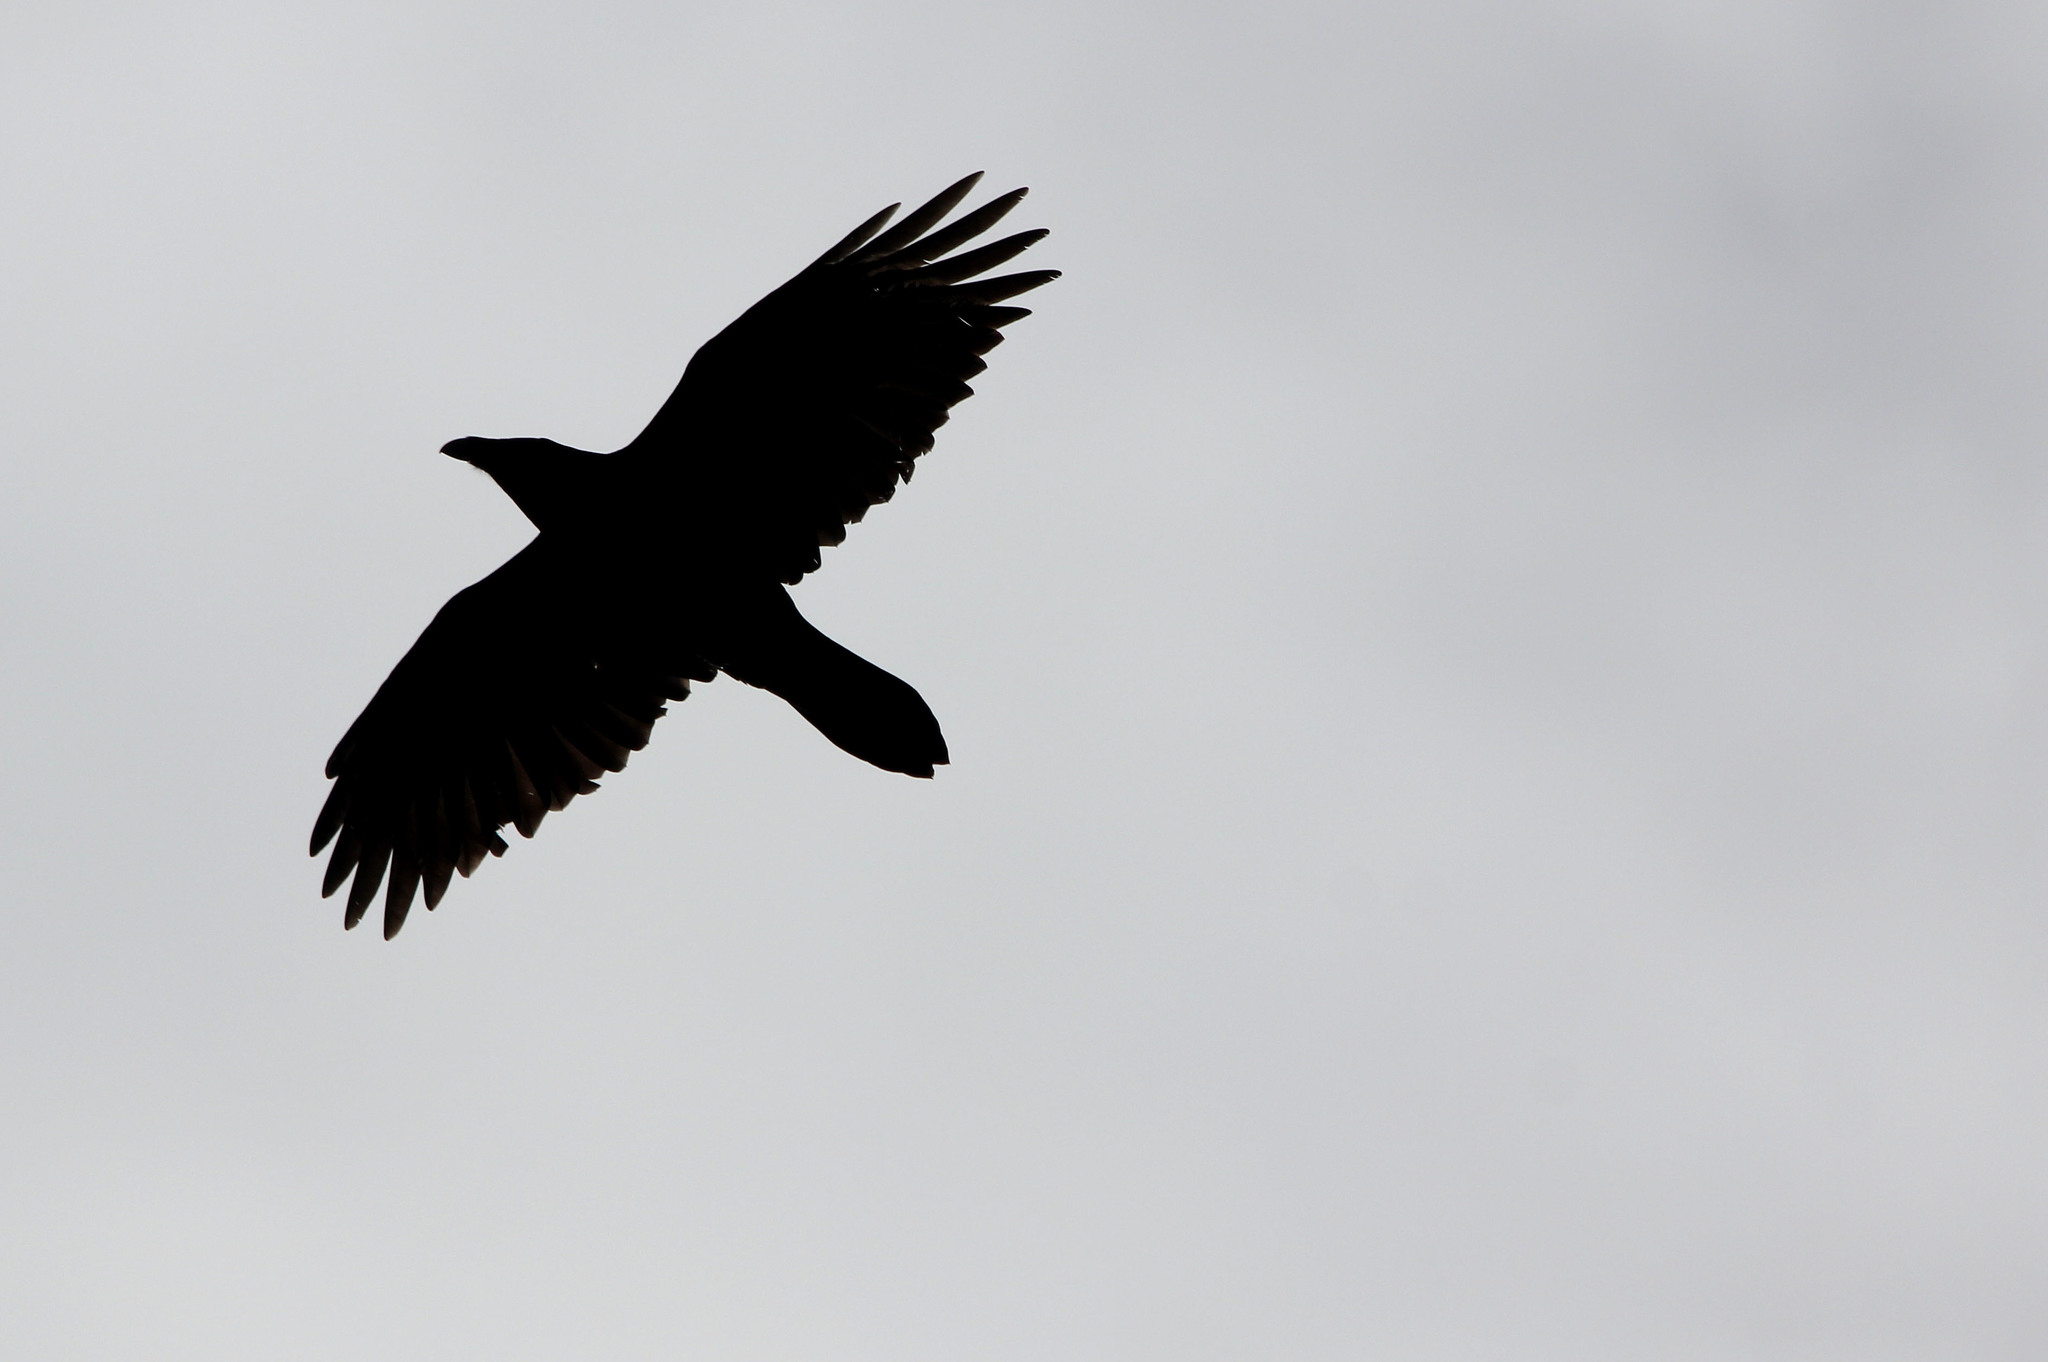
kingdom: Animalia
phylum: Chordata
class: Aves
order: Passeriformes
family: Corvidae
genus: Corvus
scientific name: Corvus corax
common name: Common raven
